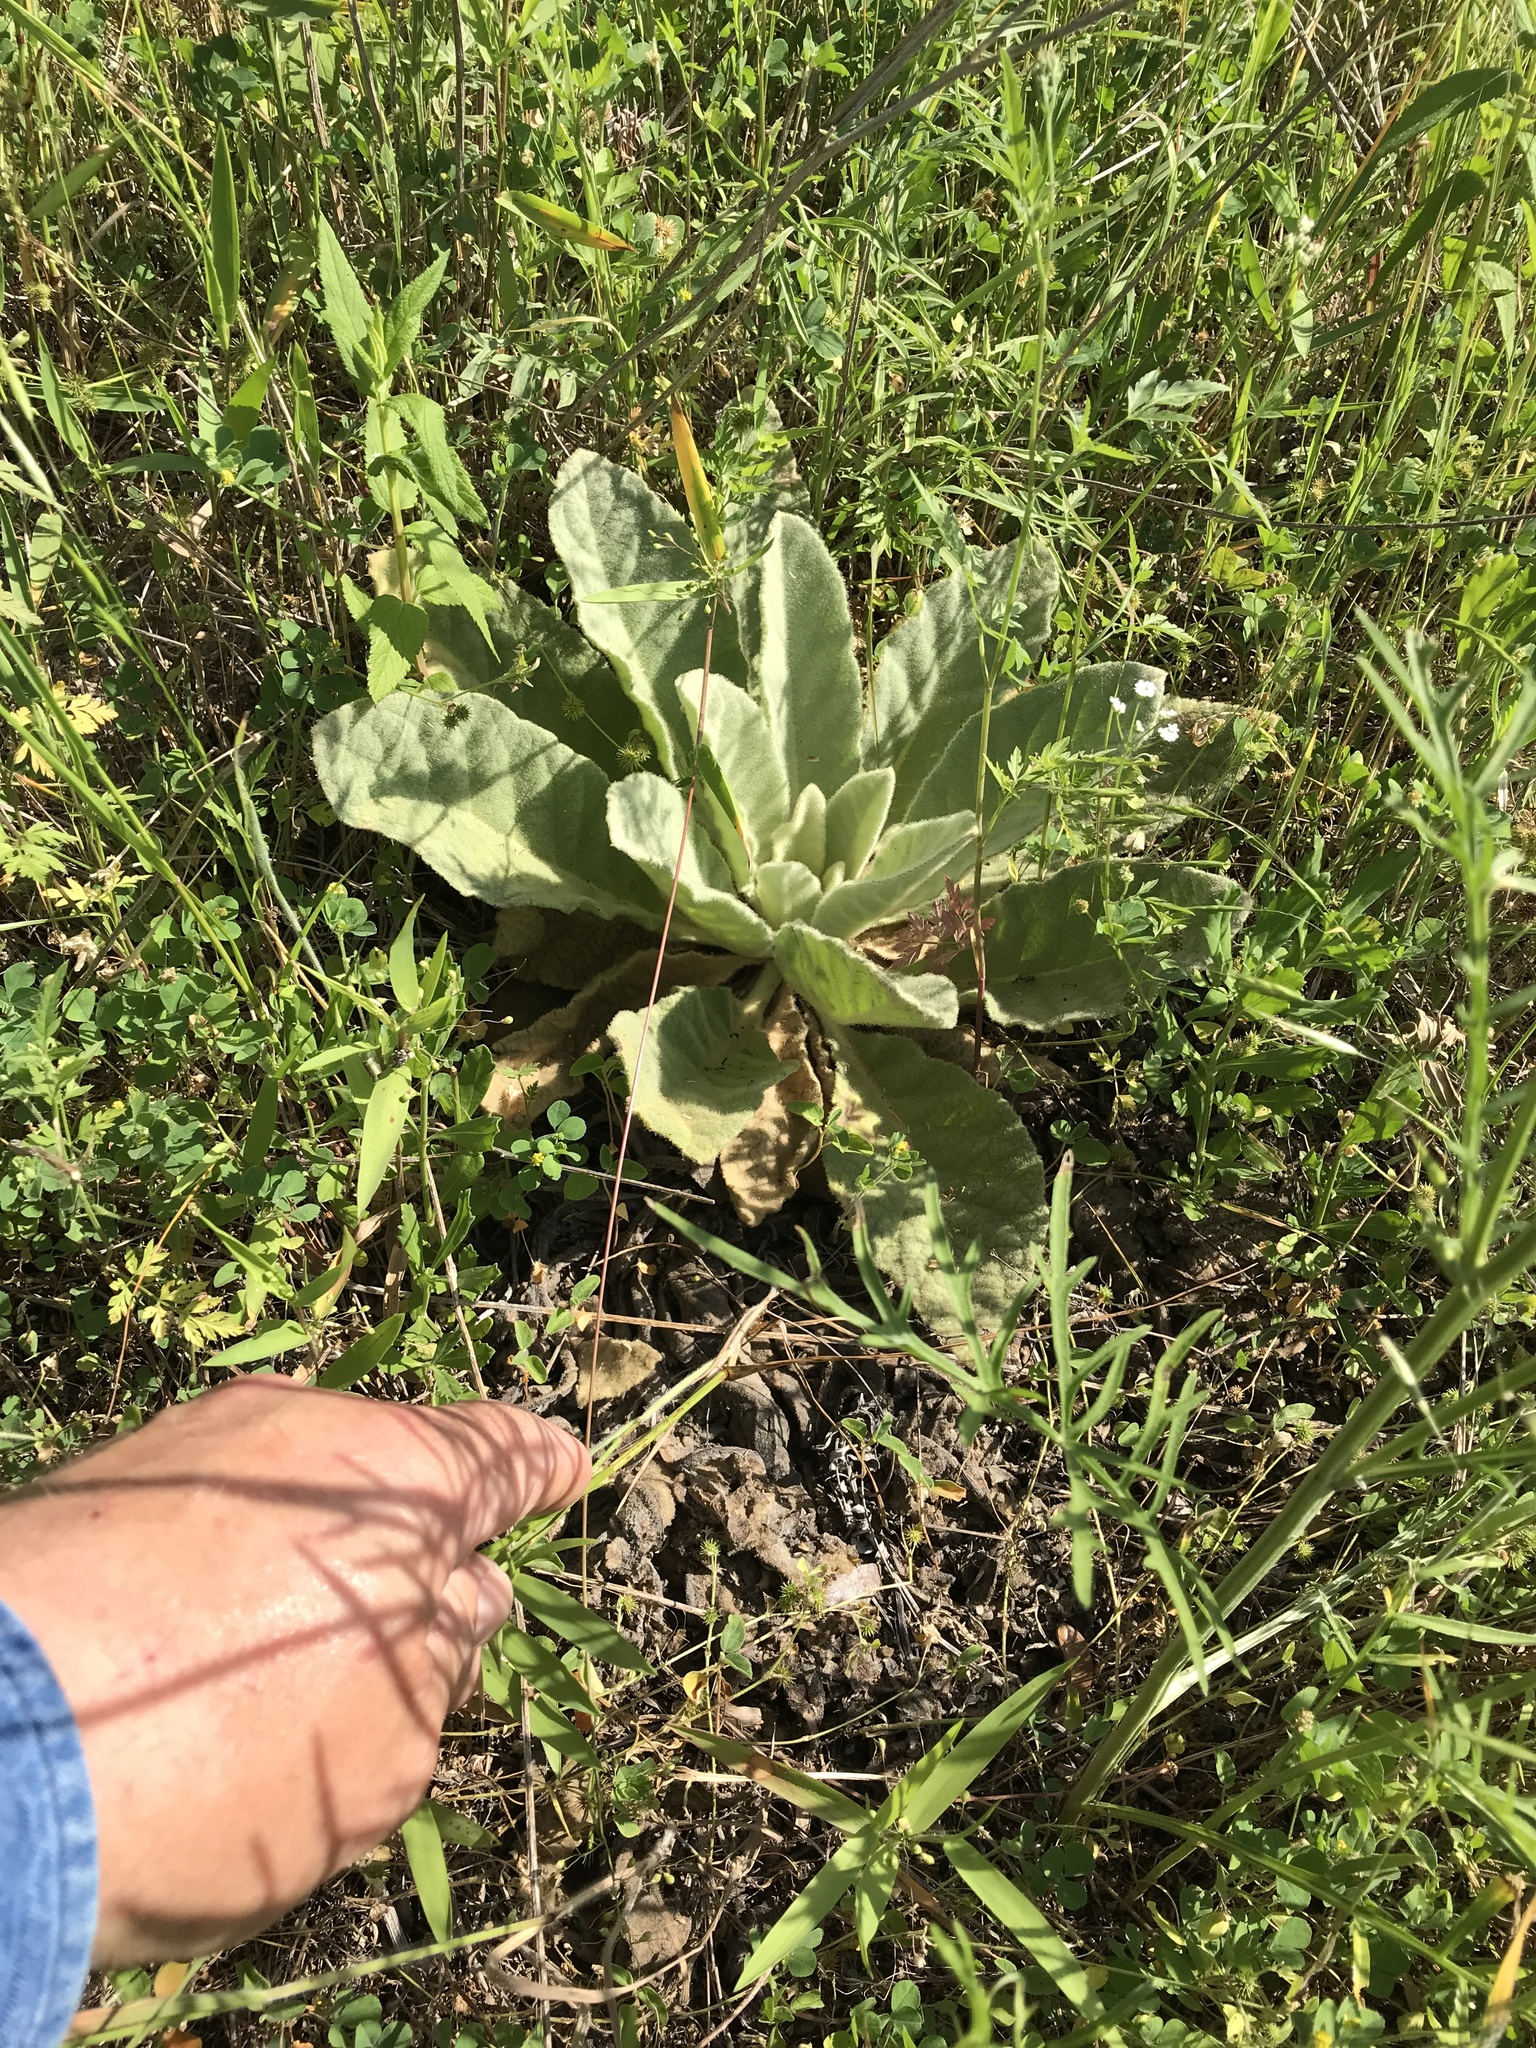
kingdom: Plantae
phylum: Tracheophyta
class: Magnoliopsida
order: Lamiales
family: Scrophulariaceae
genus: Verbascum
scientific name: Verbascum thapsus
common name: Common mullein
